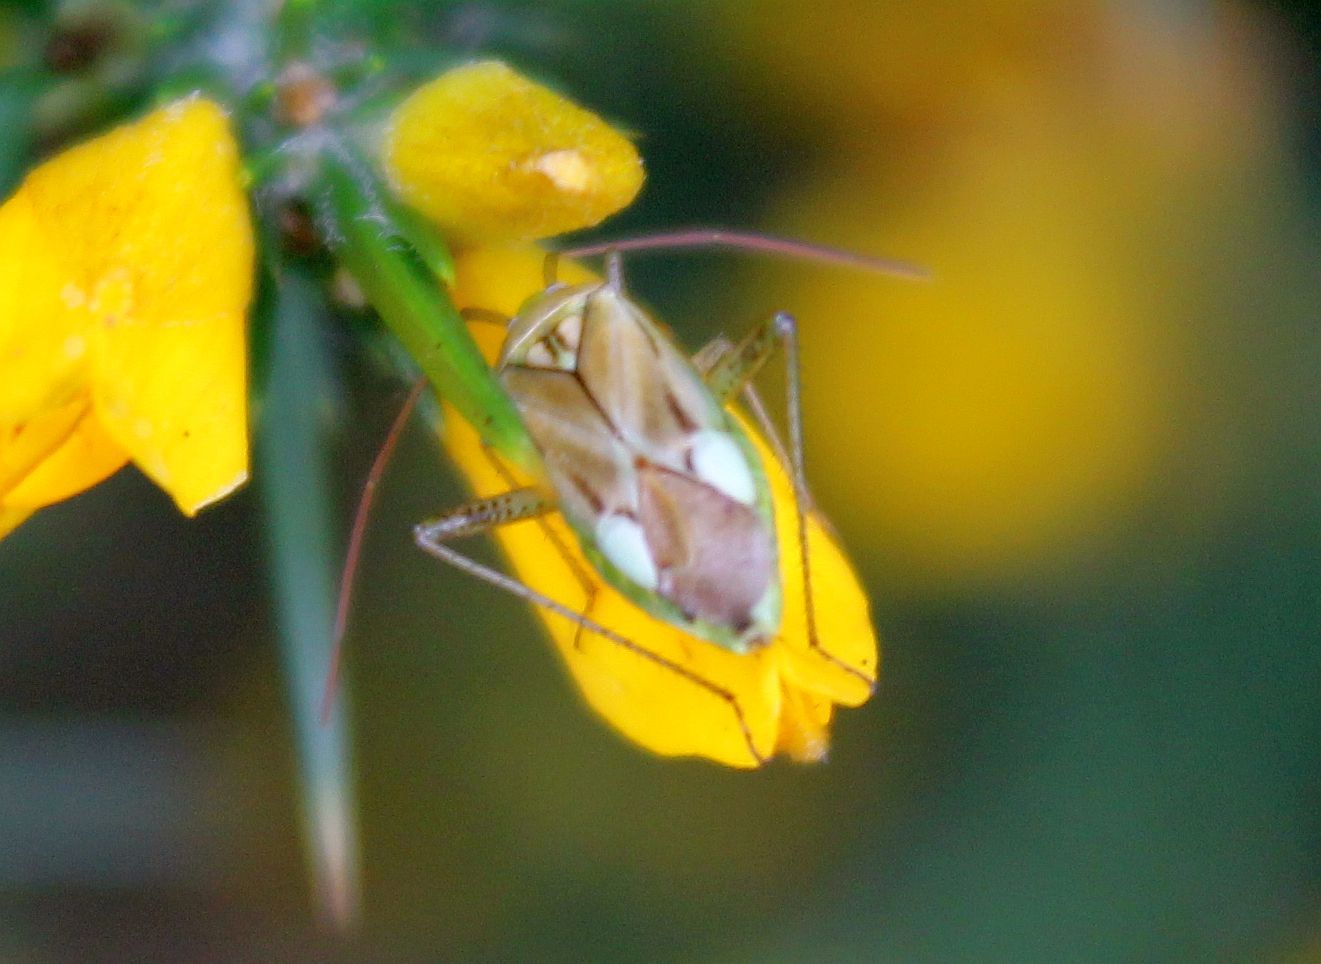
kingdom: Animalia
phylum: Arthropoda
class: Insecta
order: Hemiptera
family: Miridae
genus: Adelphocoris
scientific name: Adelphocoris lineolatus
